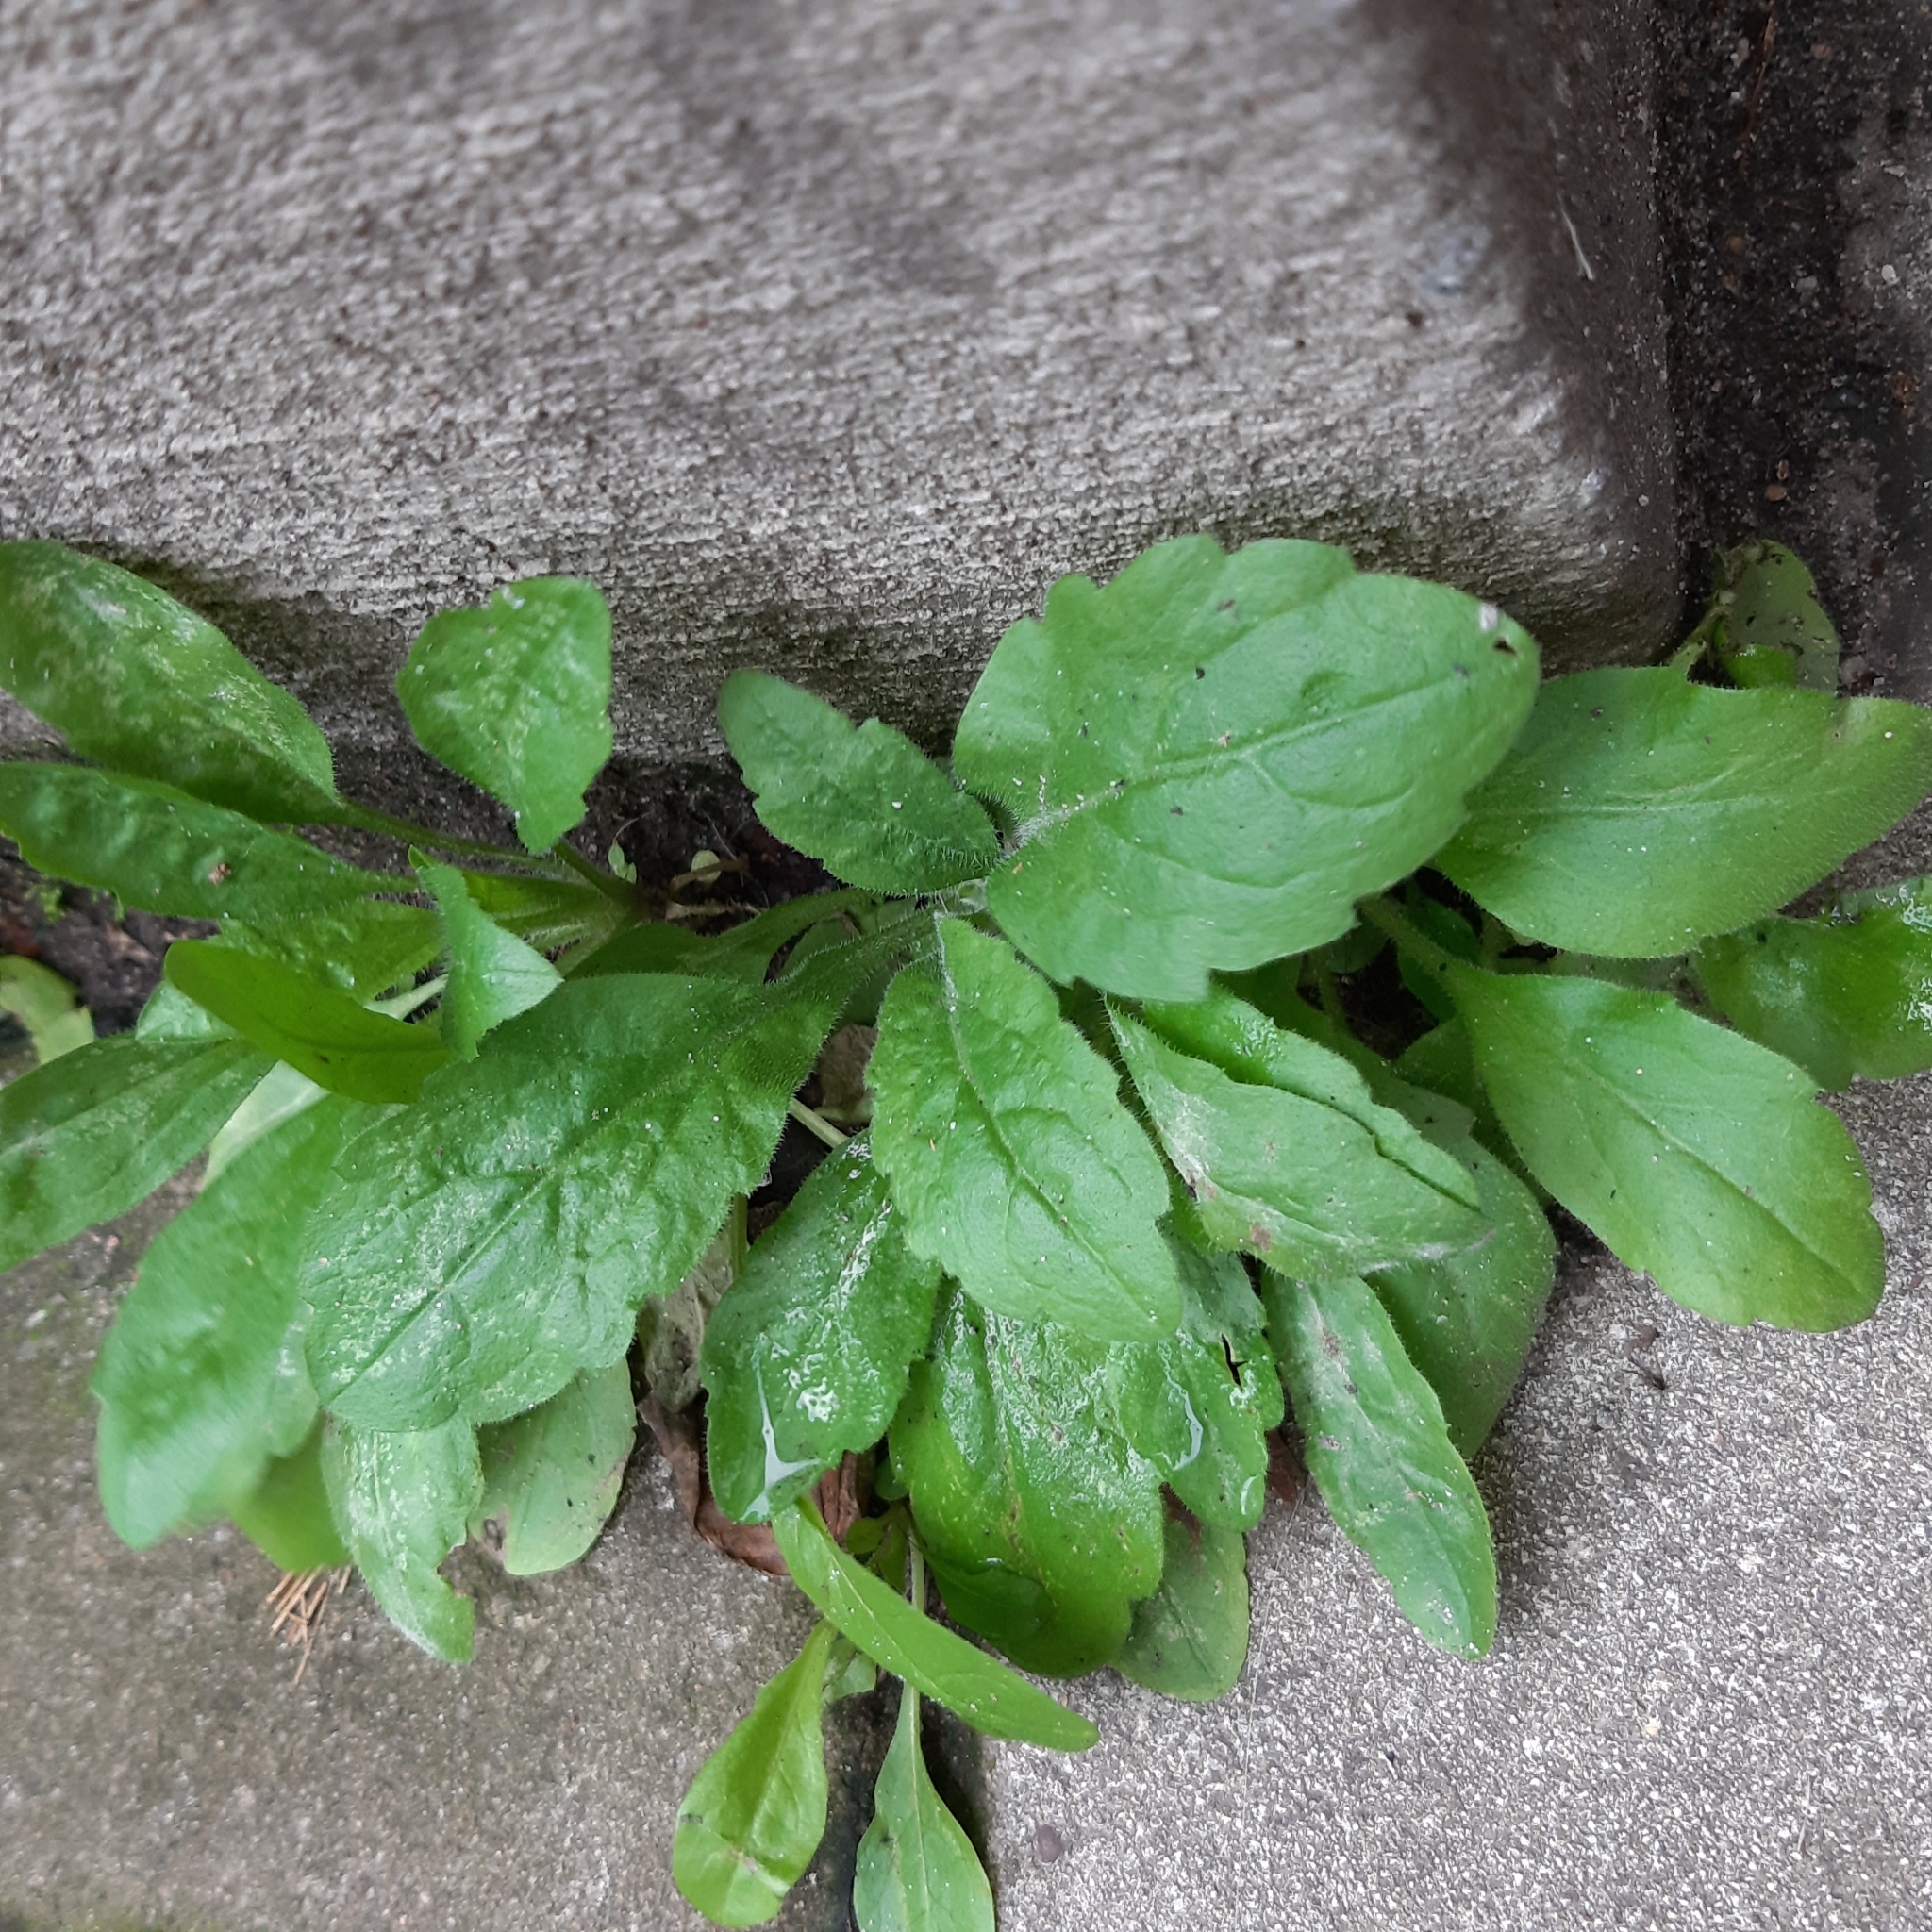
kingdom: Plantae
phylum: Tracheophyta
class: Magnoliopsida
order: Asterales
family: Asteraceae
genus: Erigeron
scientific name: Erigeron sumatrensis
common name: Daisy
